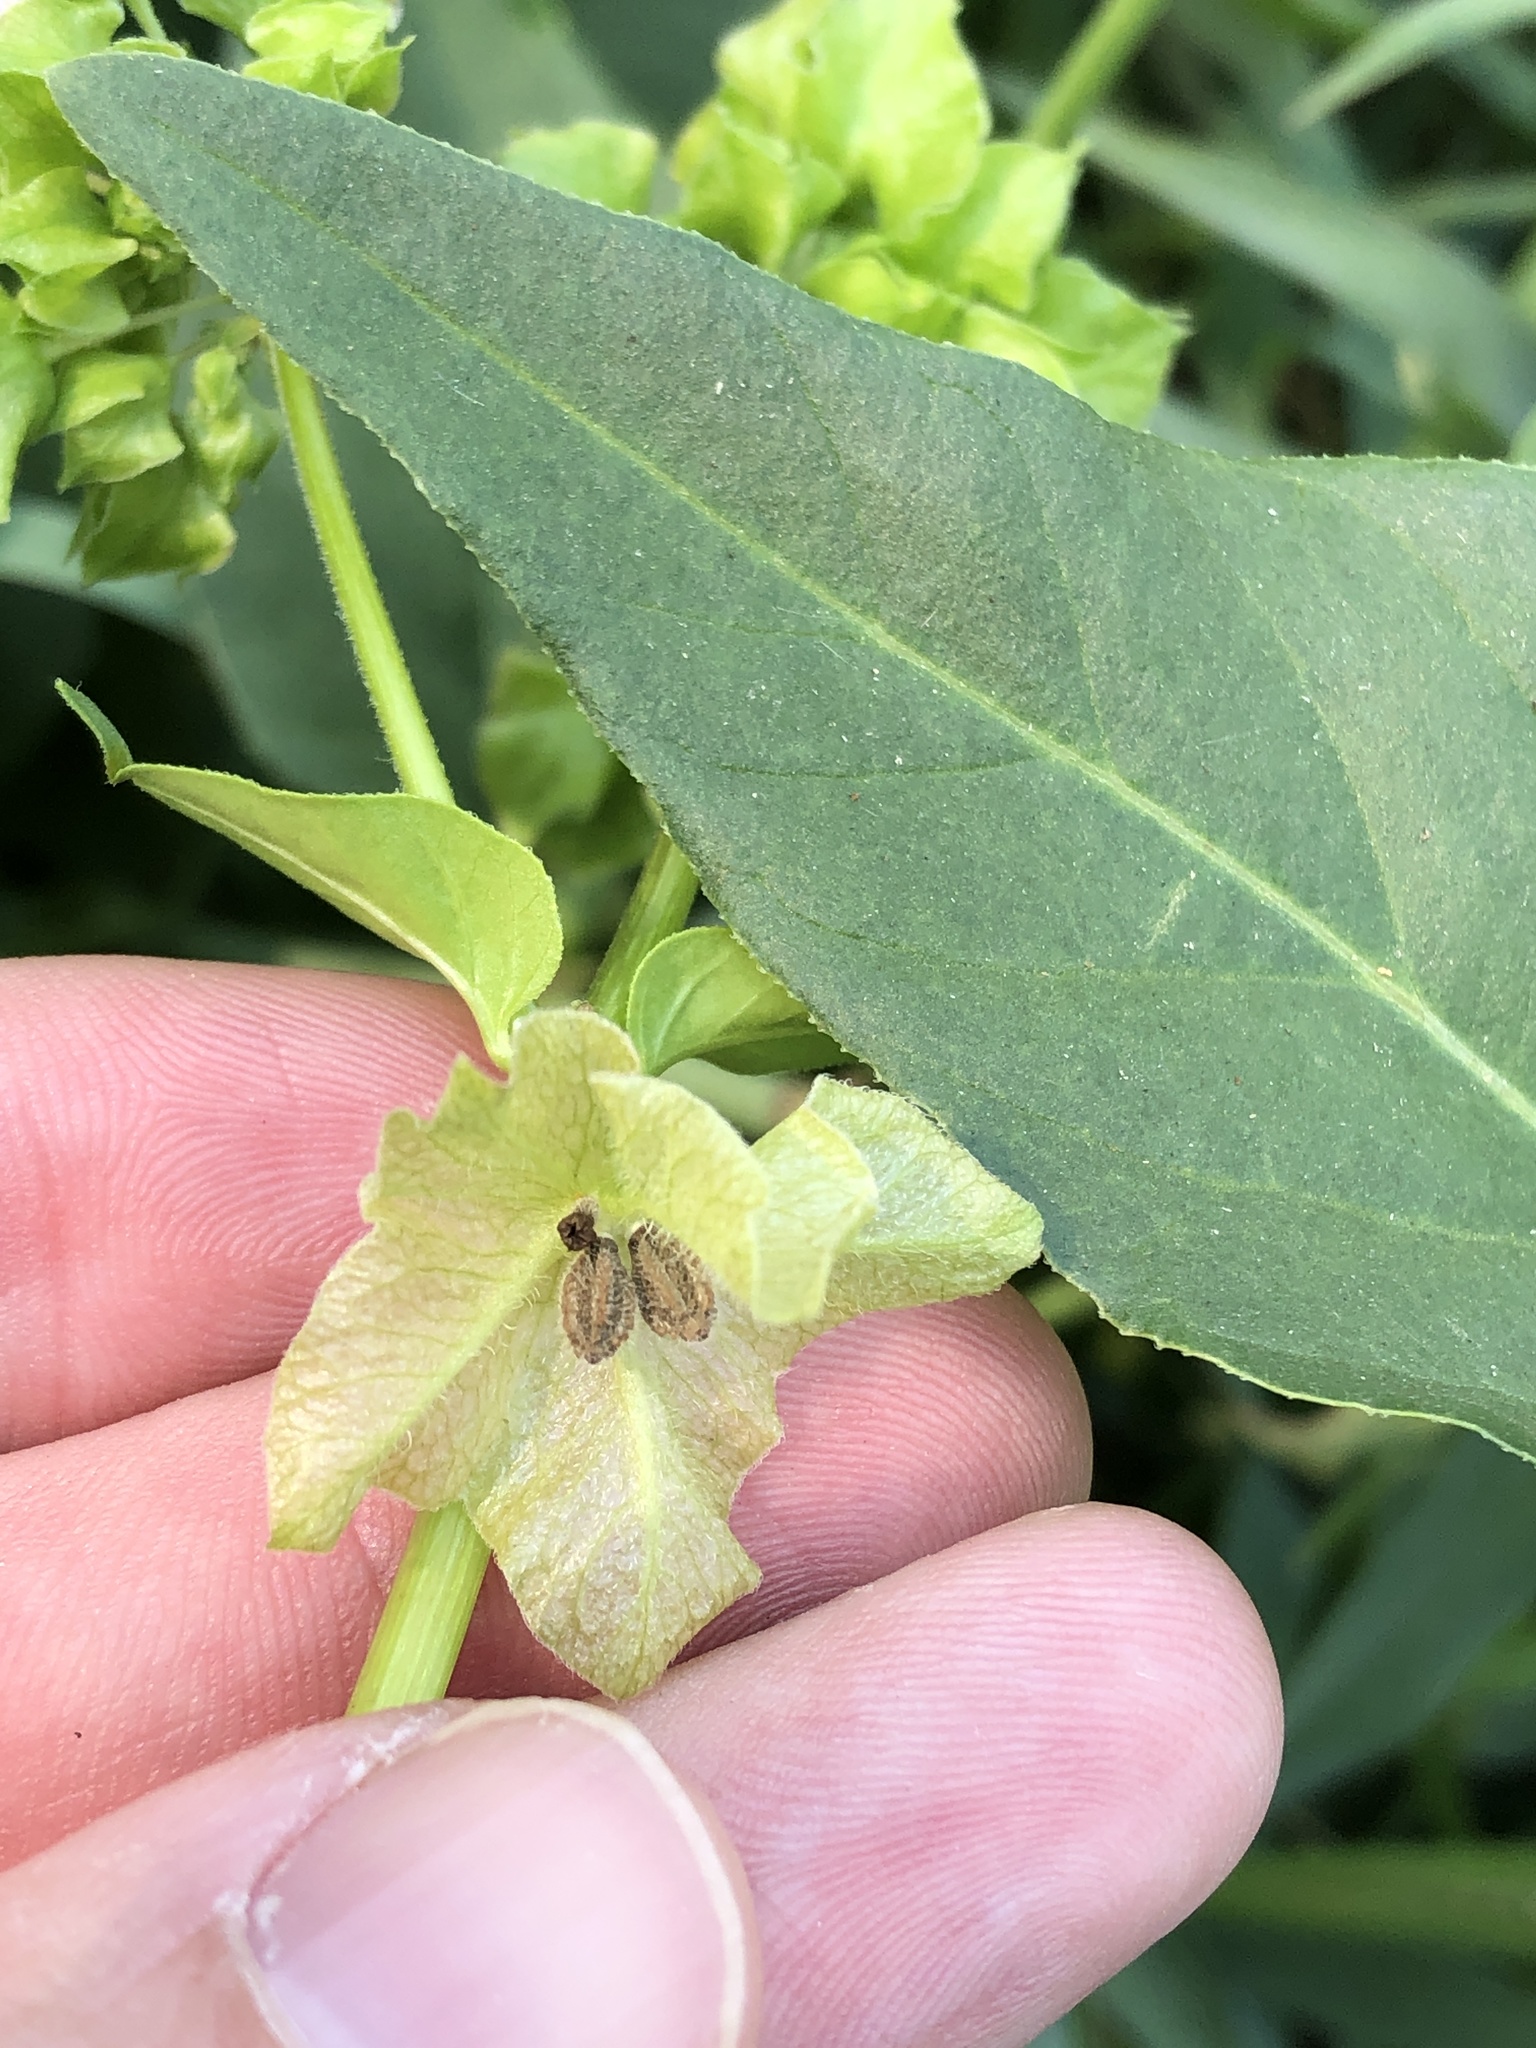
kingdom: Plantae
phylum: Tracheophyta
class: Magnoliopsida
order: Caryophyllales
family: Nyctaginaceae
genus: Mirabilis
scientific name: Mirabilis nyctaginea
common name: Umbrella wort
